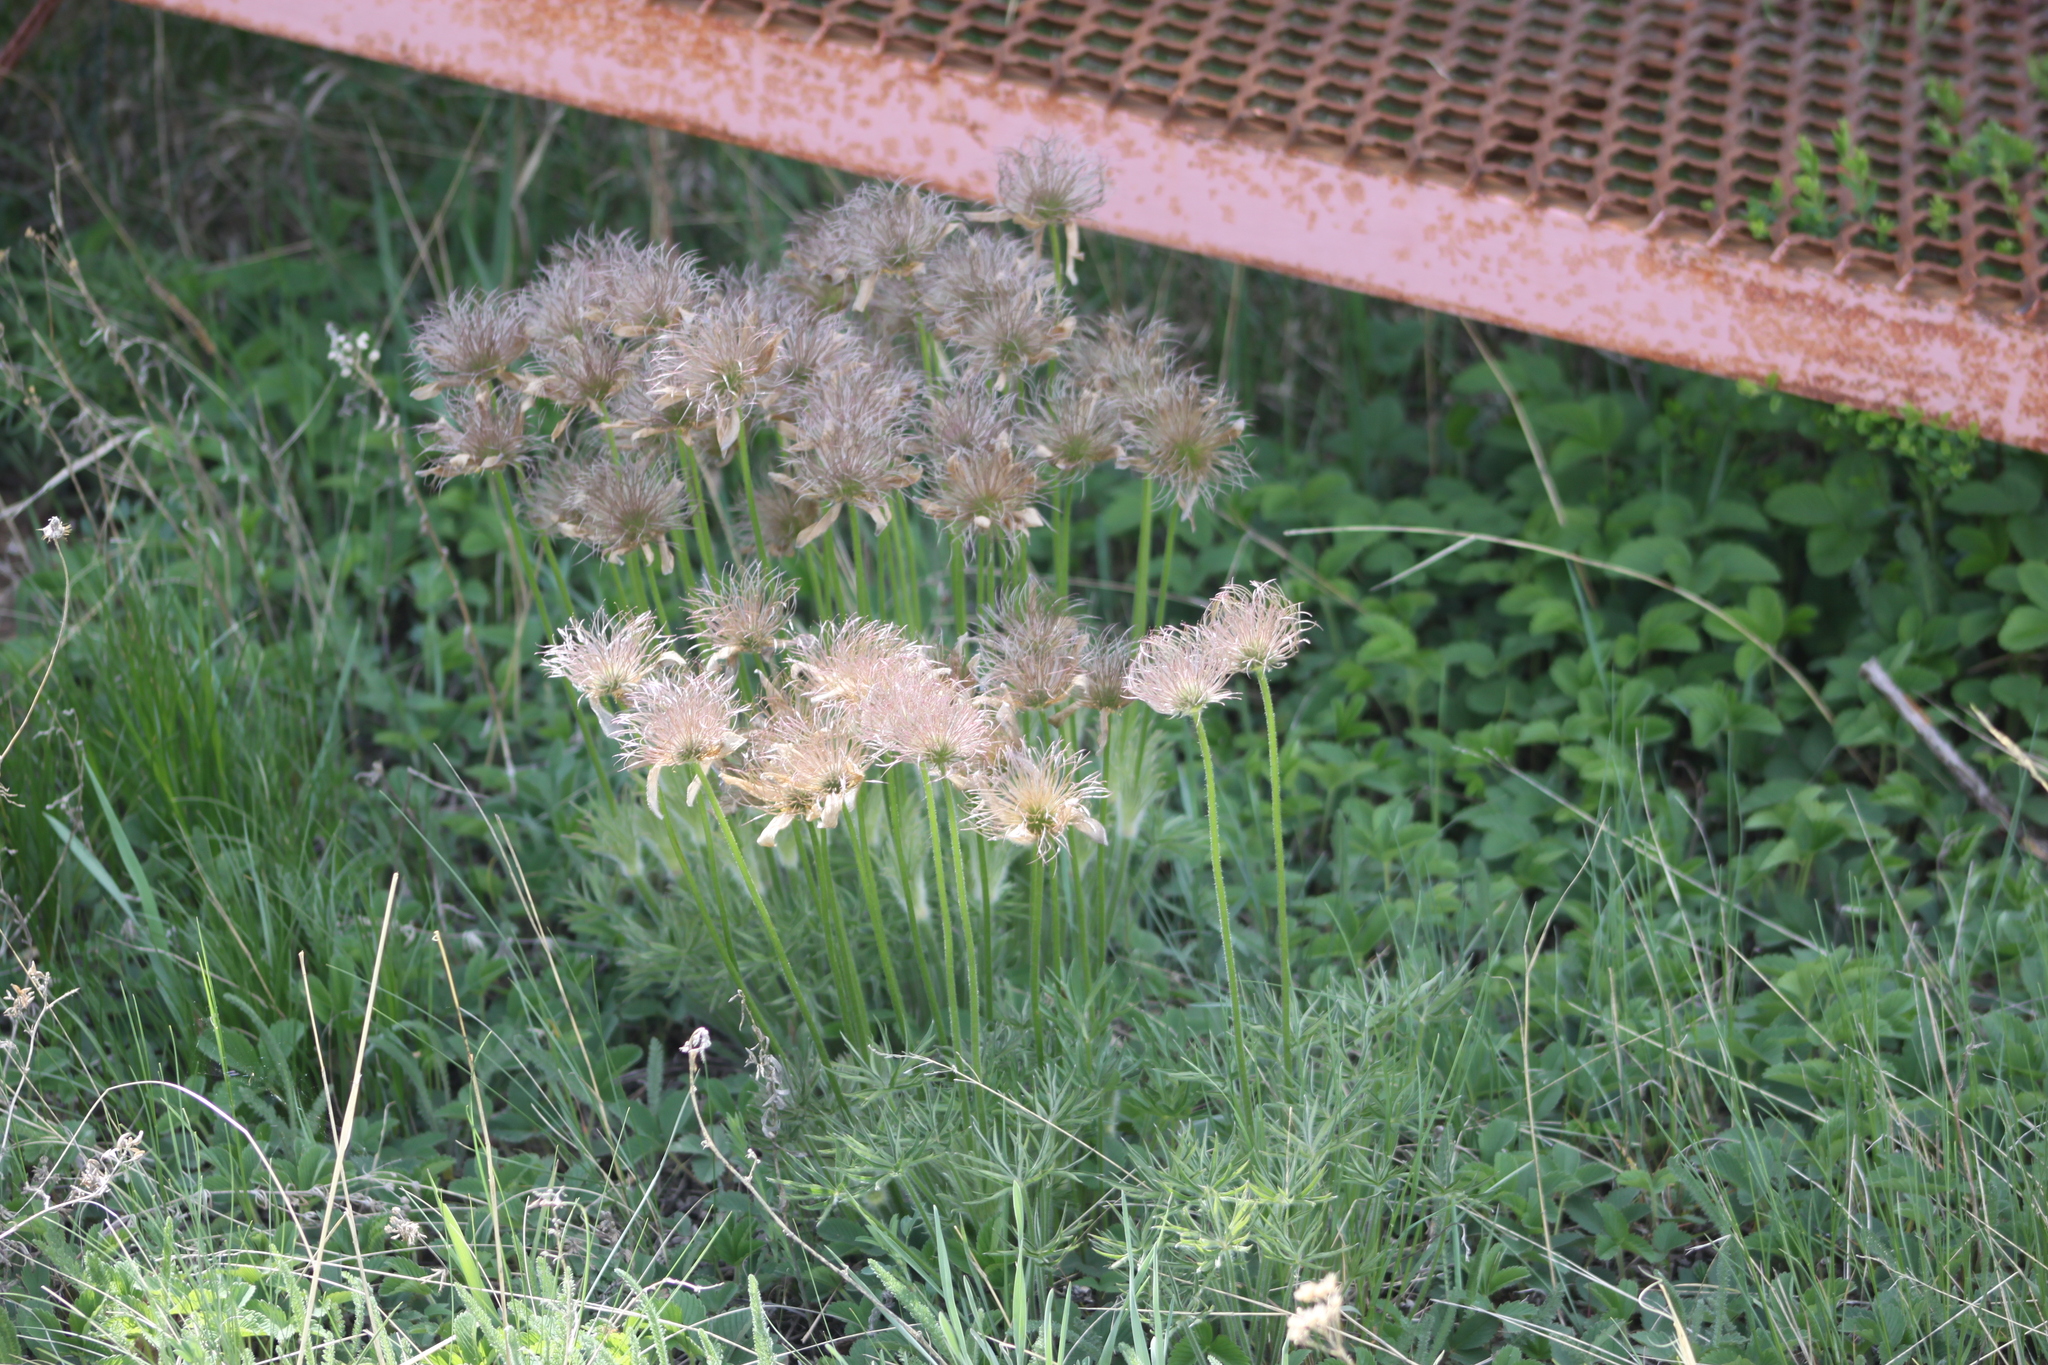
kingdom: Plantae
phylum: Tracheophyta
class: Magnoliopsida
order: Ranunculales
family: Ranunculaceae
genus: Pulsatilla
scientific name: Pulsatilla patens
